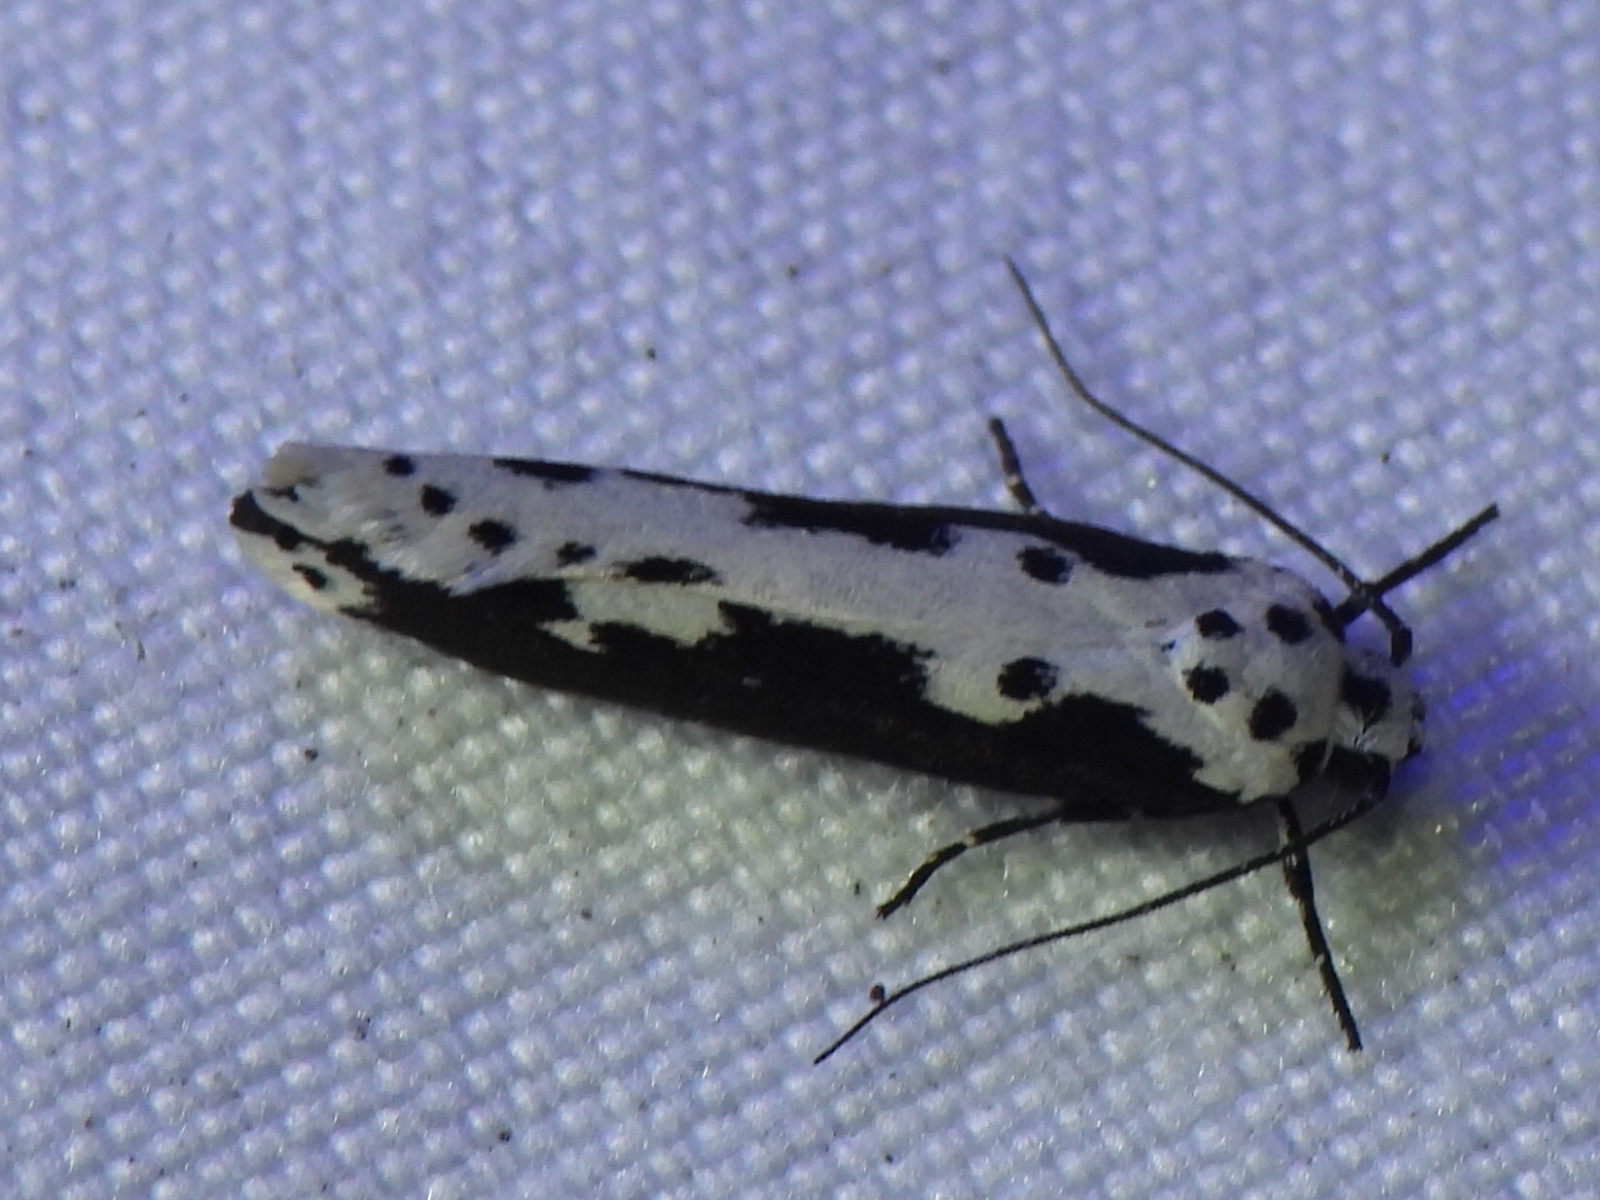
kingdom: Animalia
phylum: Arthropoda
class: Insecta
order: Lepidoptera
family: Ethmiidae
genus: Ethmia
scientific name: Ethmia semilugens
